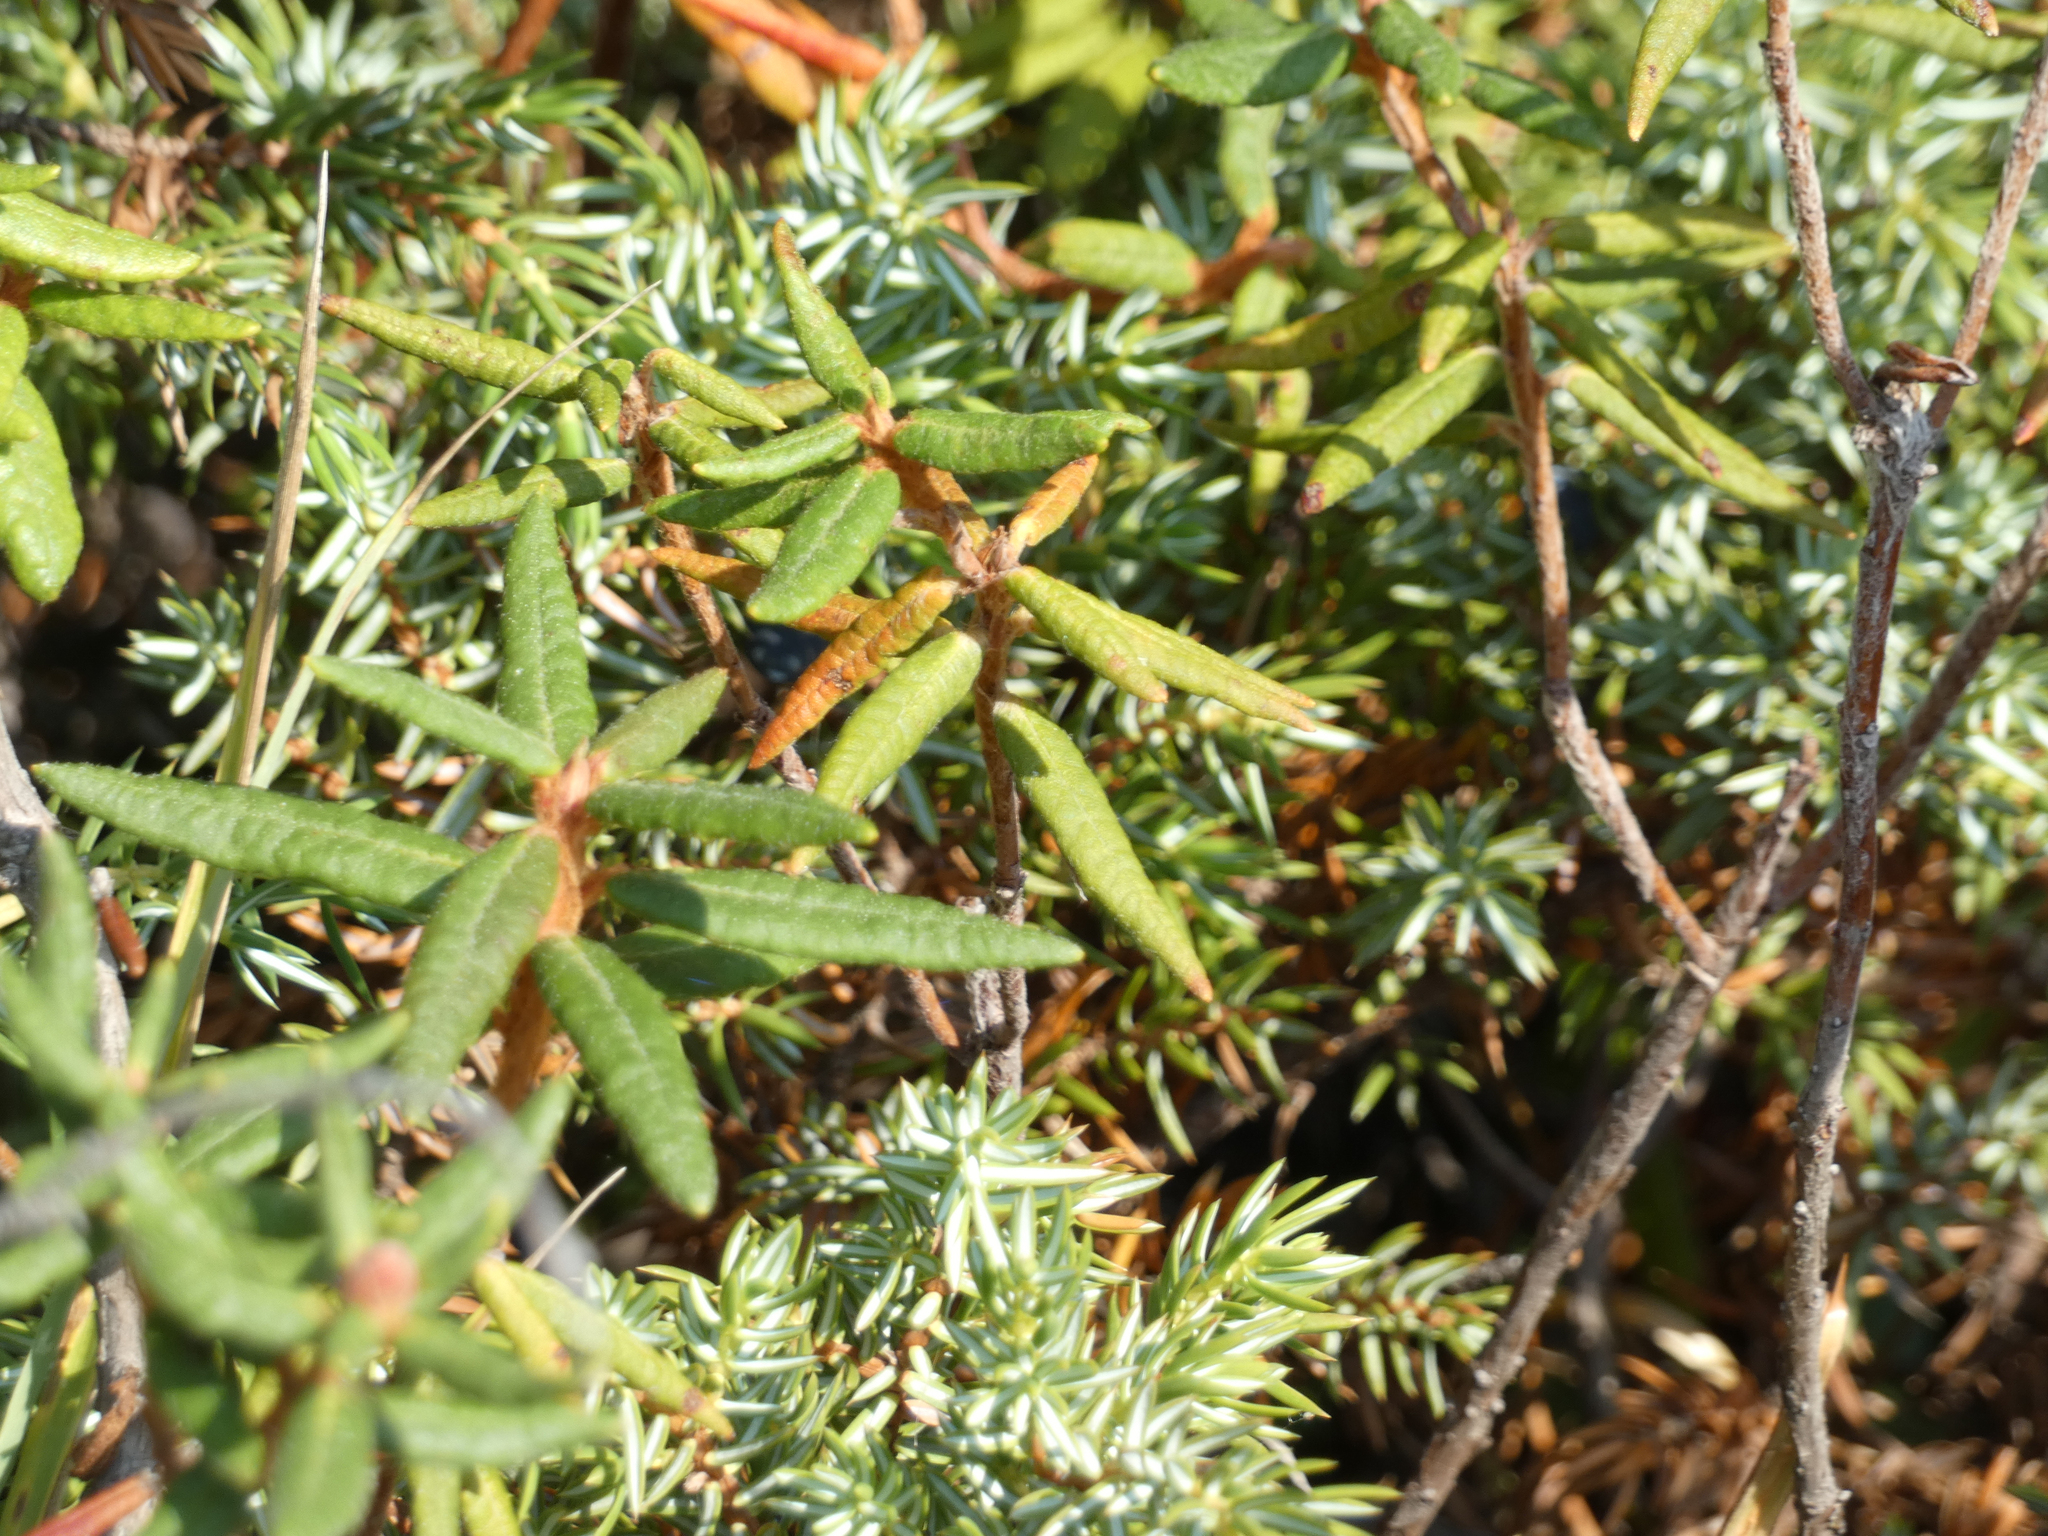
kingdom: Plantae
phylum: Tracheophyta
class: Magnoliopsida
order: Ericales
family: Ericaceae
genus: Rhododendron
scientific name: Rhododendron groenlandicum
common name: Bog labrador tea
